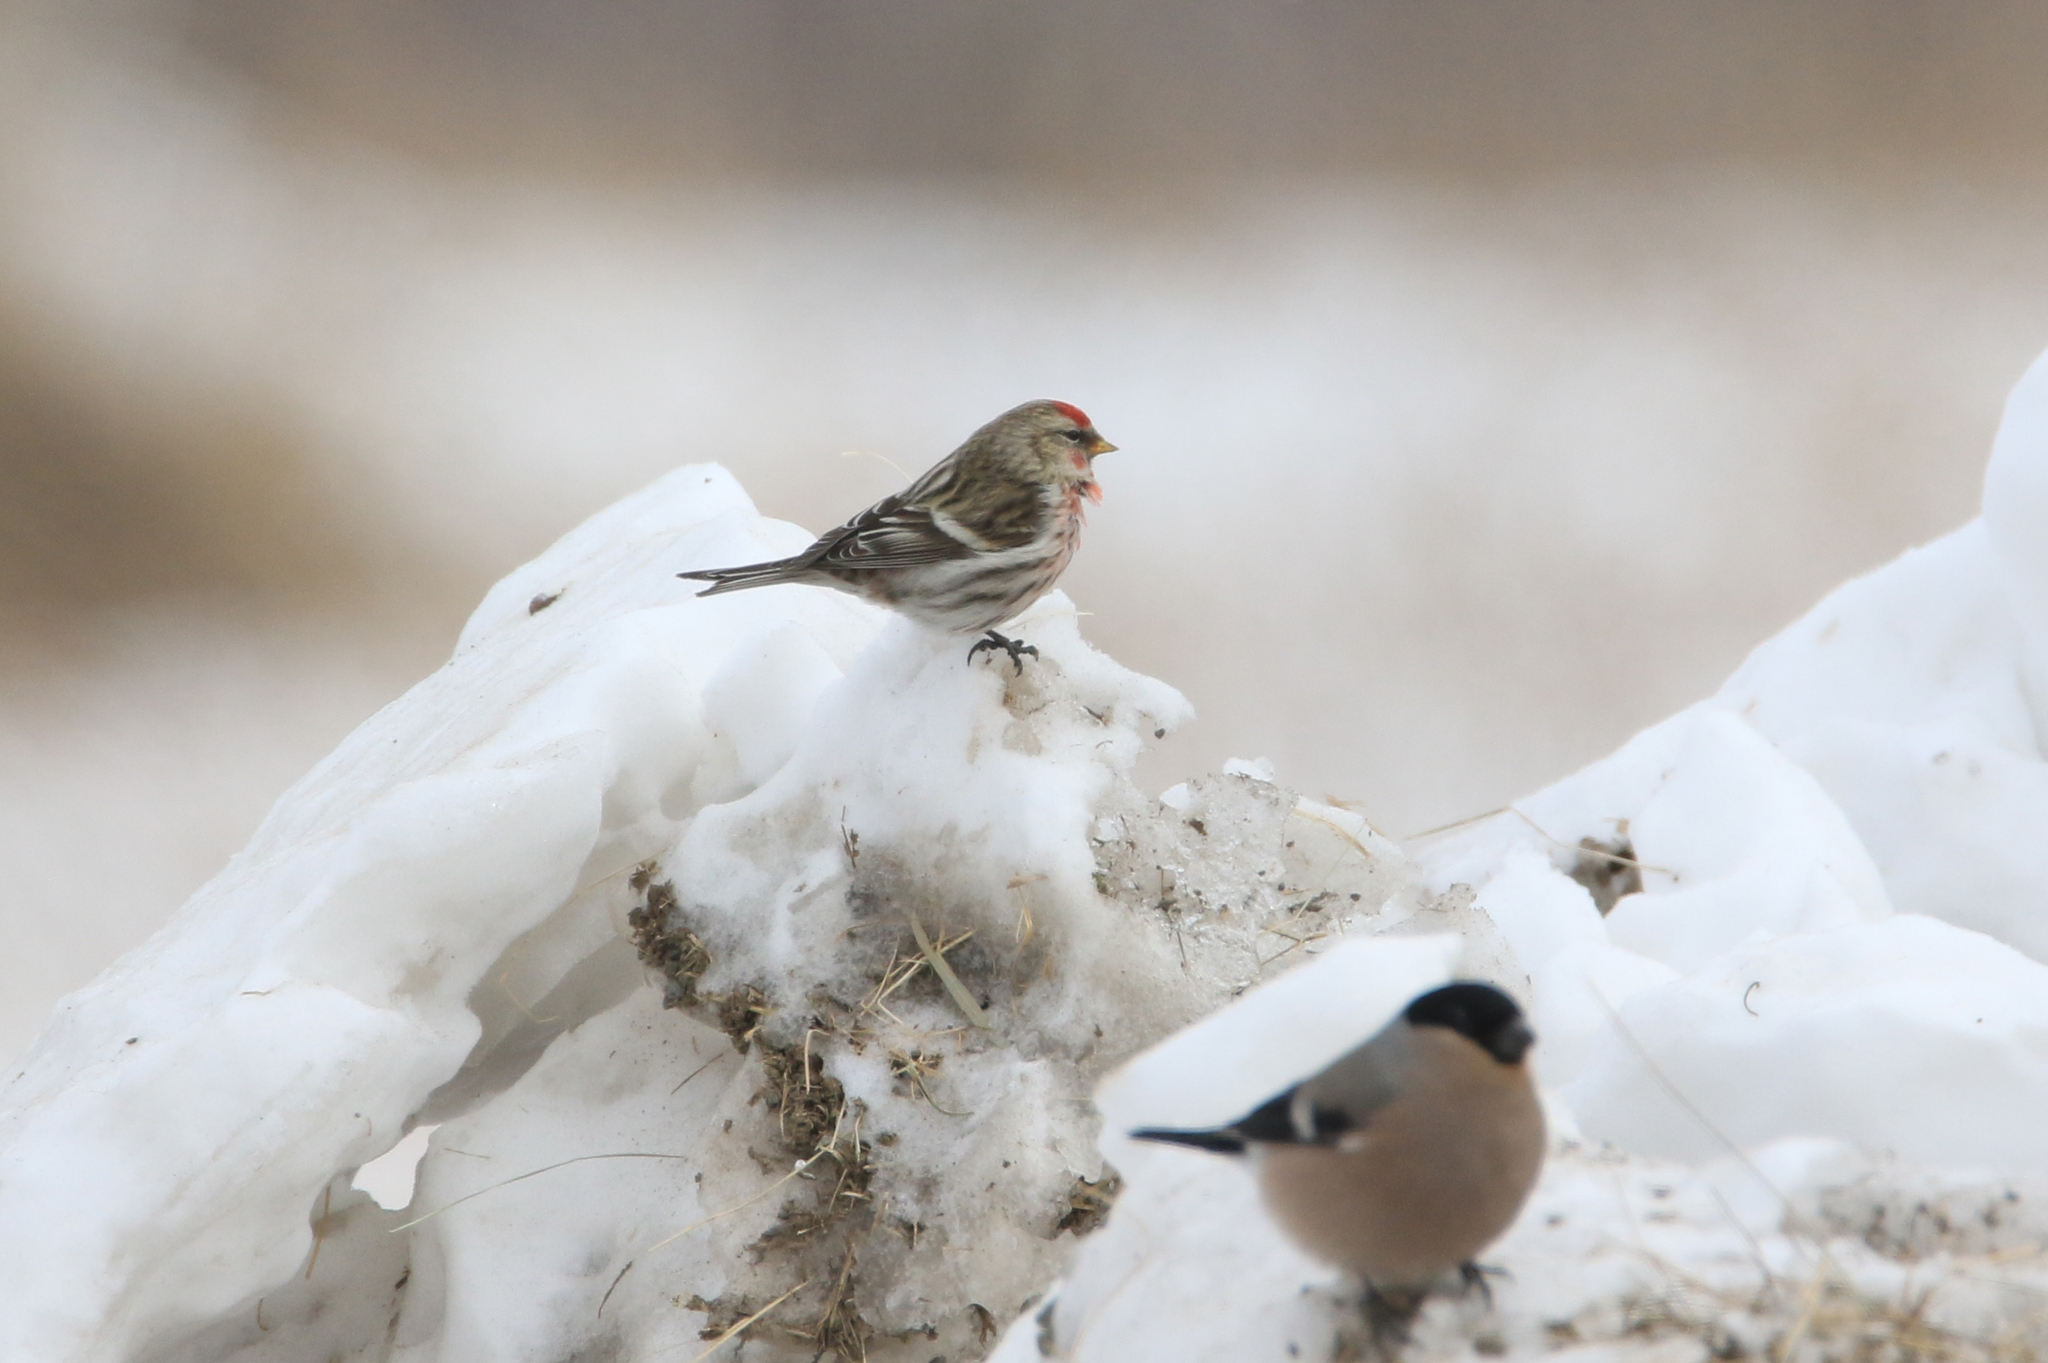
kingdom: Animalia
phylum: Chordata
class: Aves
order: Passeriformes
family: Fringillidae
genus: Acanthis
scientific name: Acanthis flammea
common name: Common redpoll
